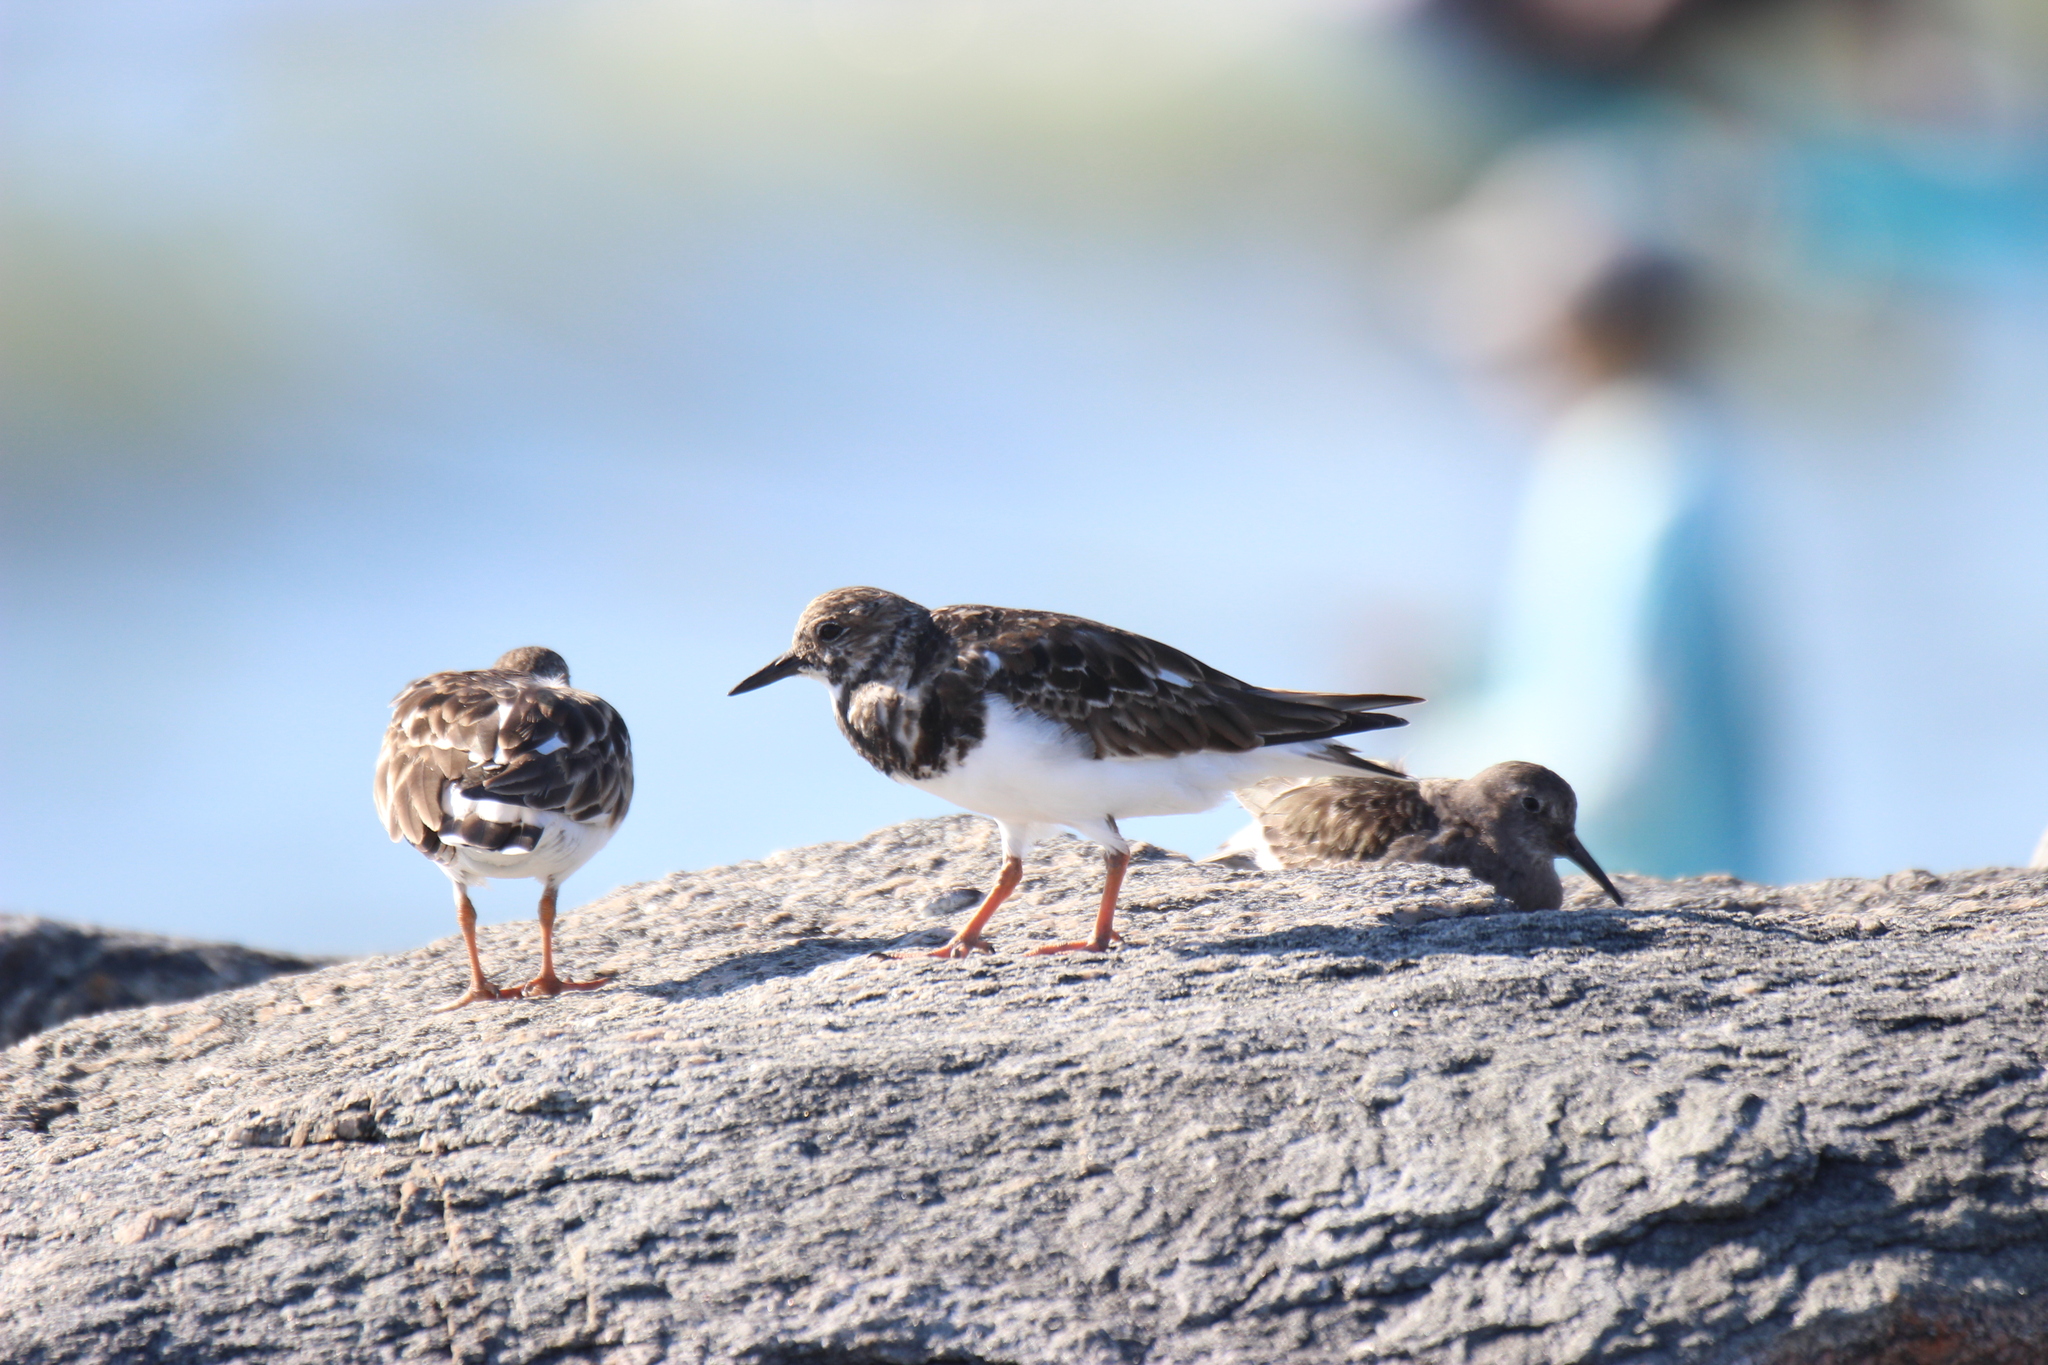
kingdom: Animalia
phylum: Chordata
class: Aves
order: Charadriiformes
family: Scolopacidae
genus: Arenaria
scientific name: Arenaria interpres
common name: Ruddy turnstone
